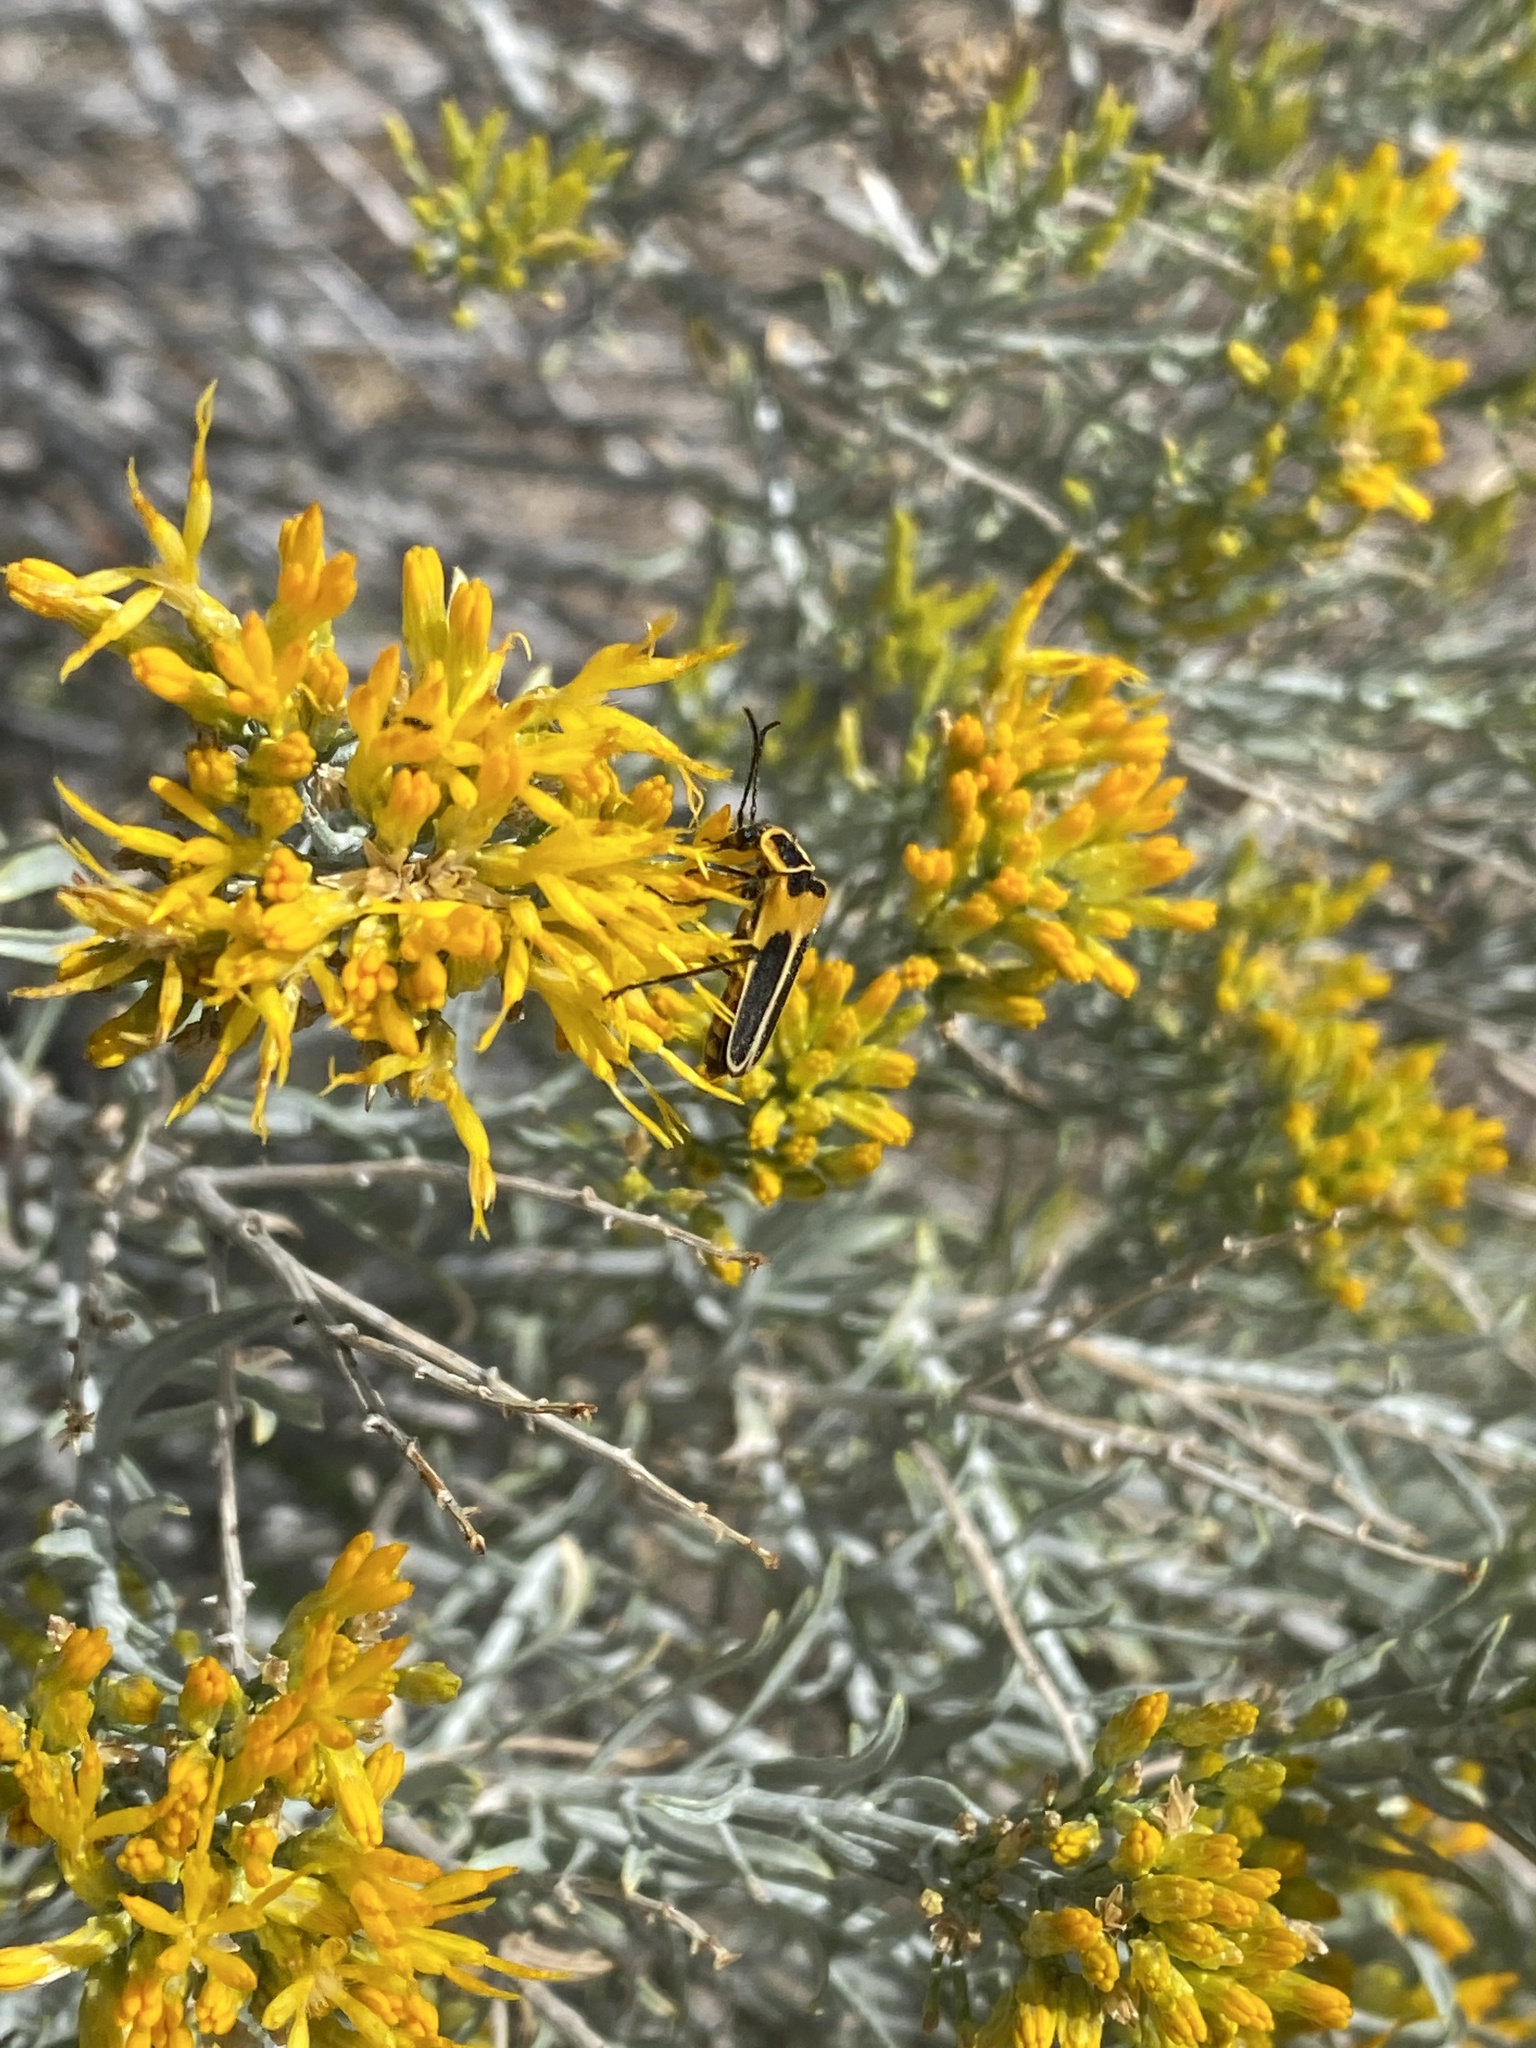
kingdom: Animalia
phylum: Arthropoda
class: Insecta
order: Coleoptera
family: Cantharidae
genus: Chauliognathus
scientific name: Chauliognathus lewisi
